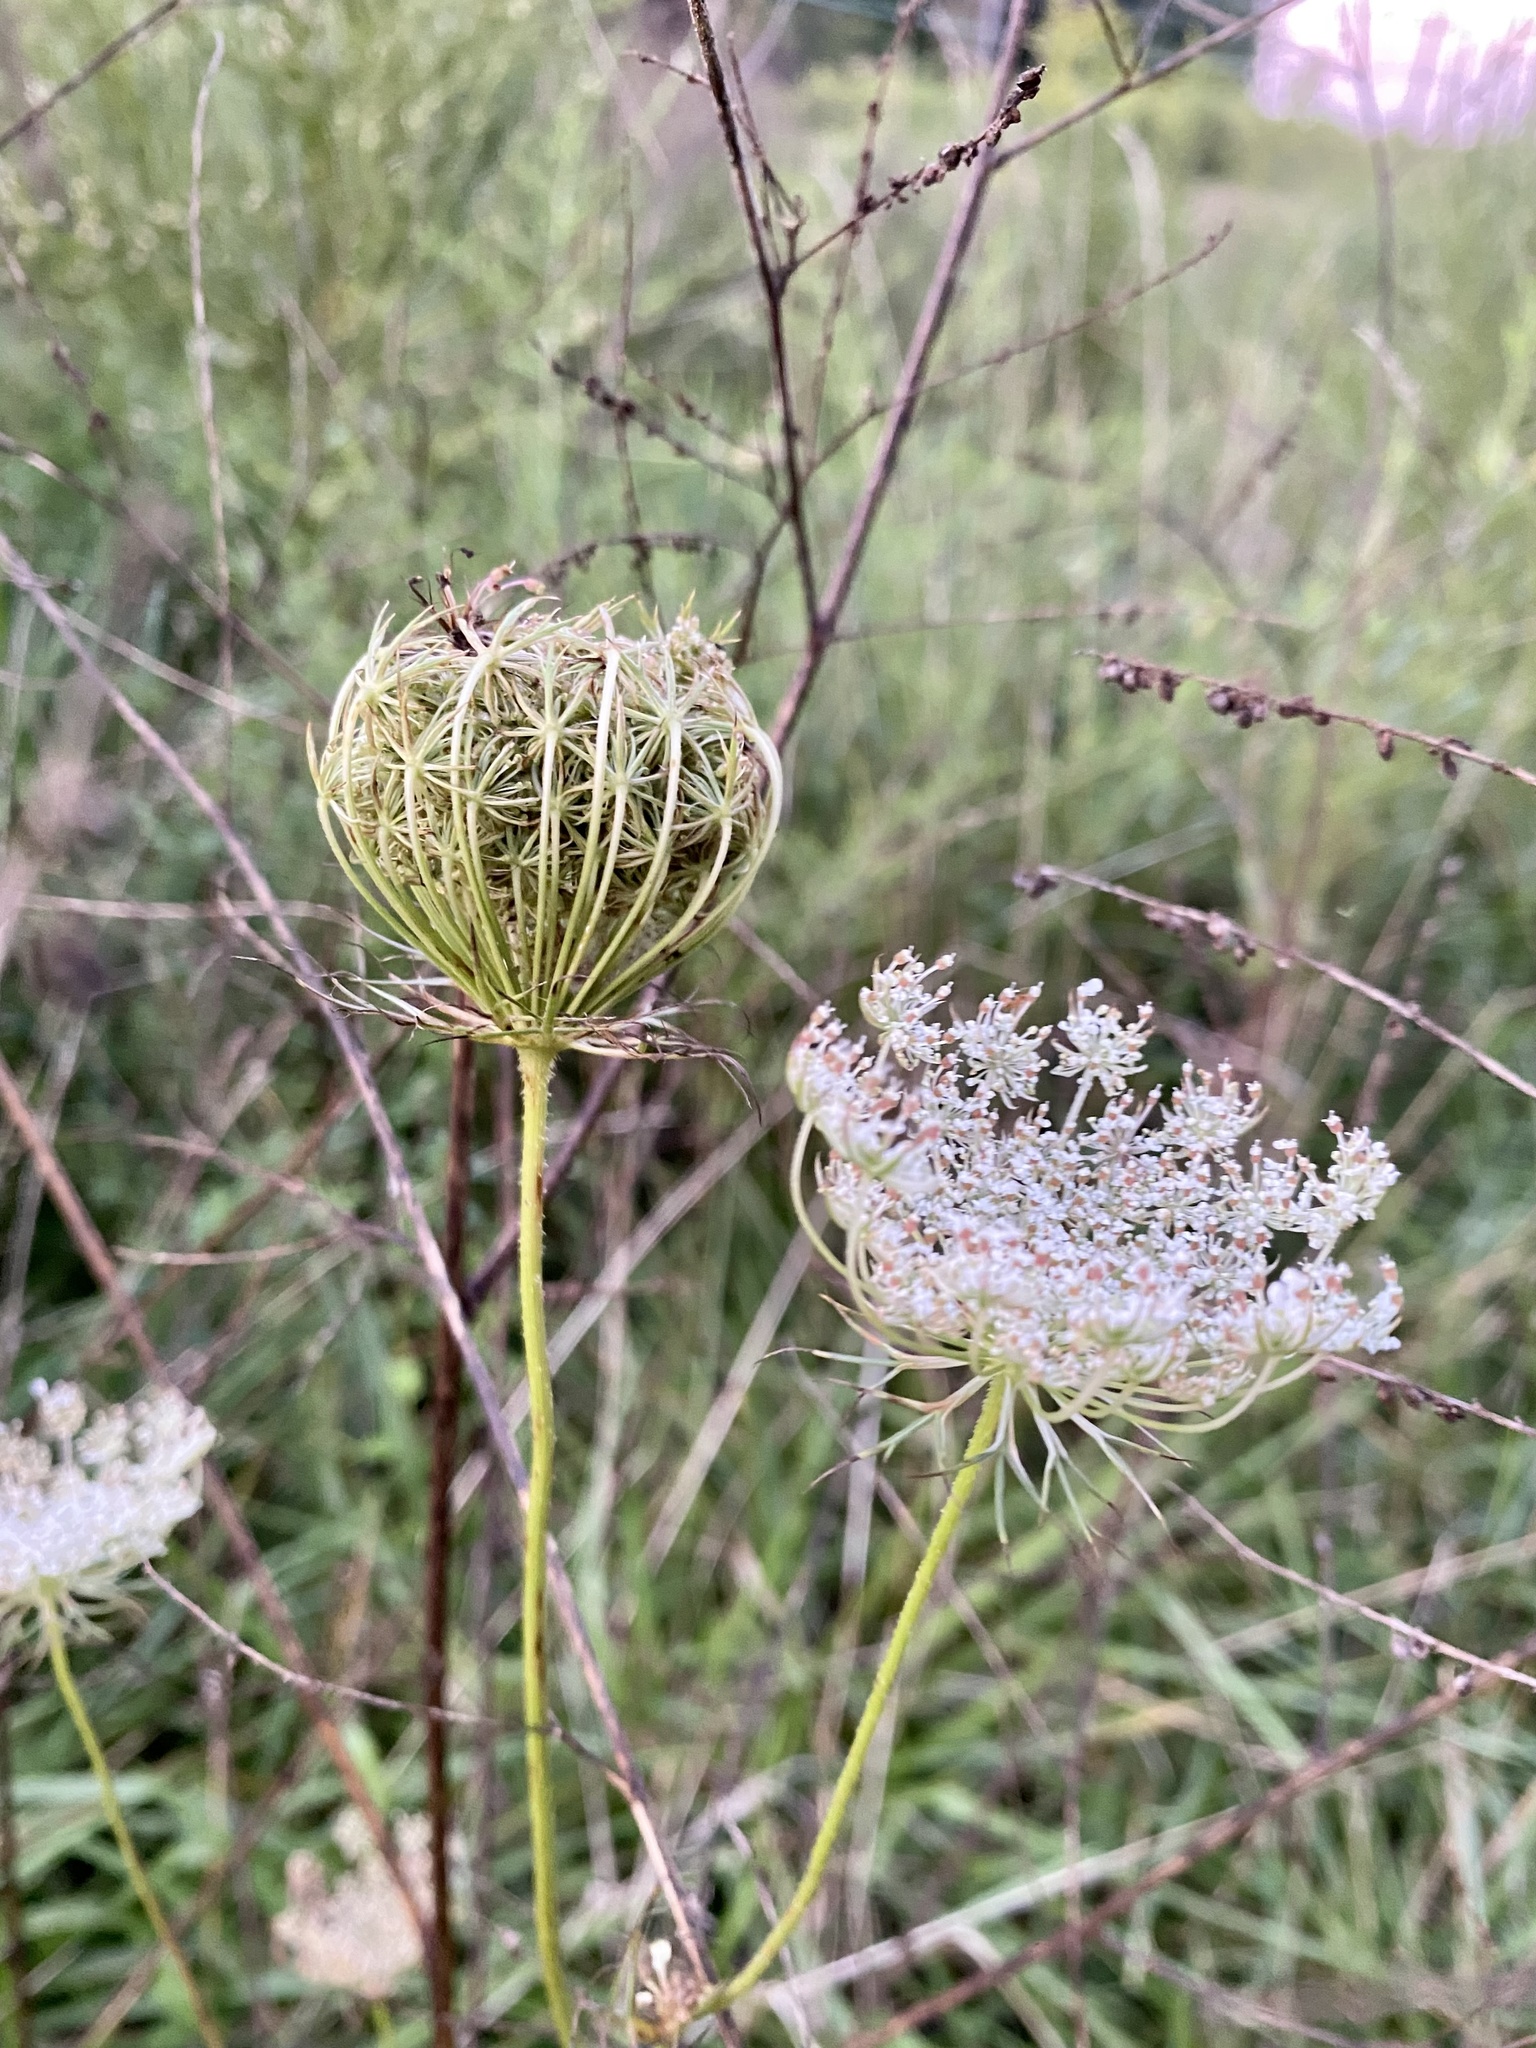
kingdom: Plantae
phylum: Tracheophyta
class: Magnoliopsida
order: Apiales
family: Apiaceae
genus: Daucus
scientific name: Daucus carota
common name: Wild carrot
